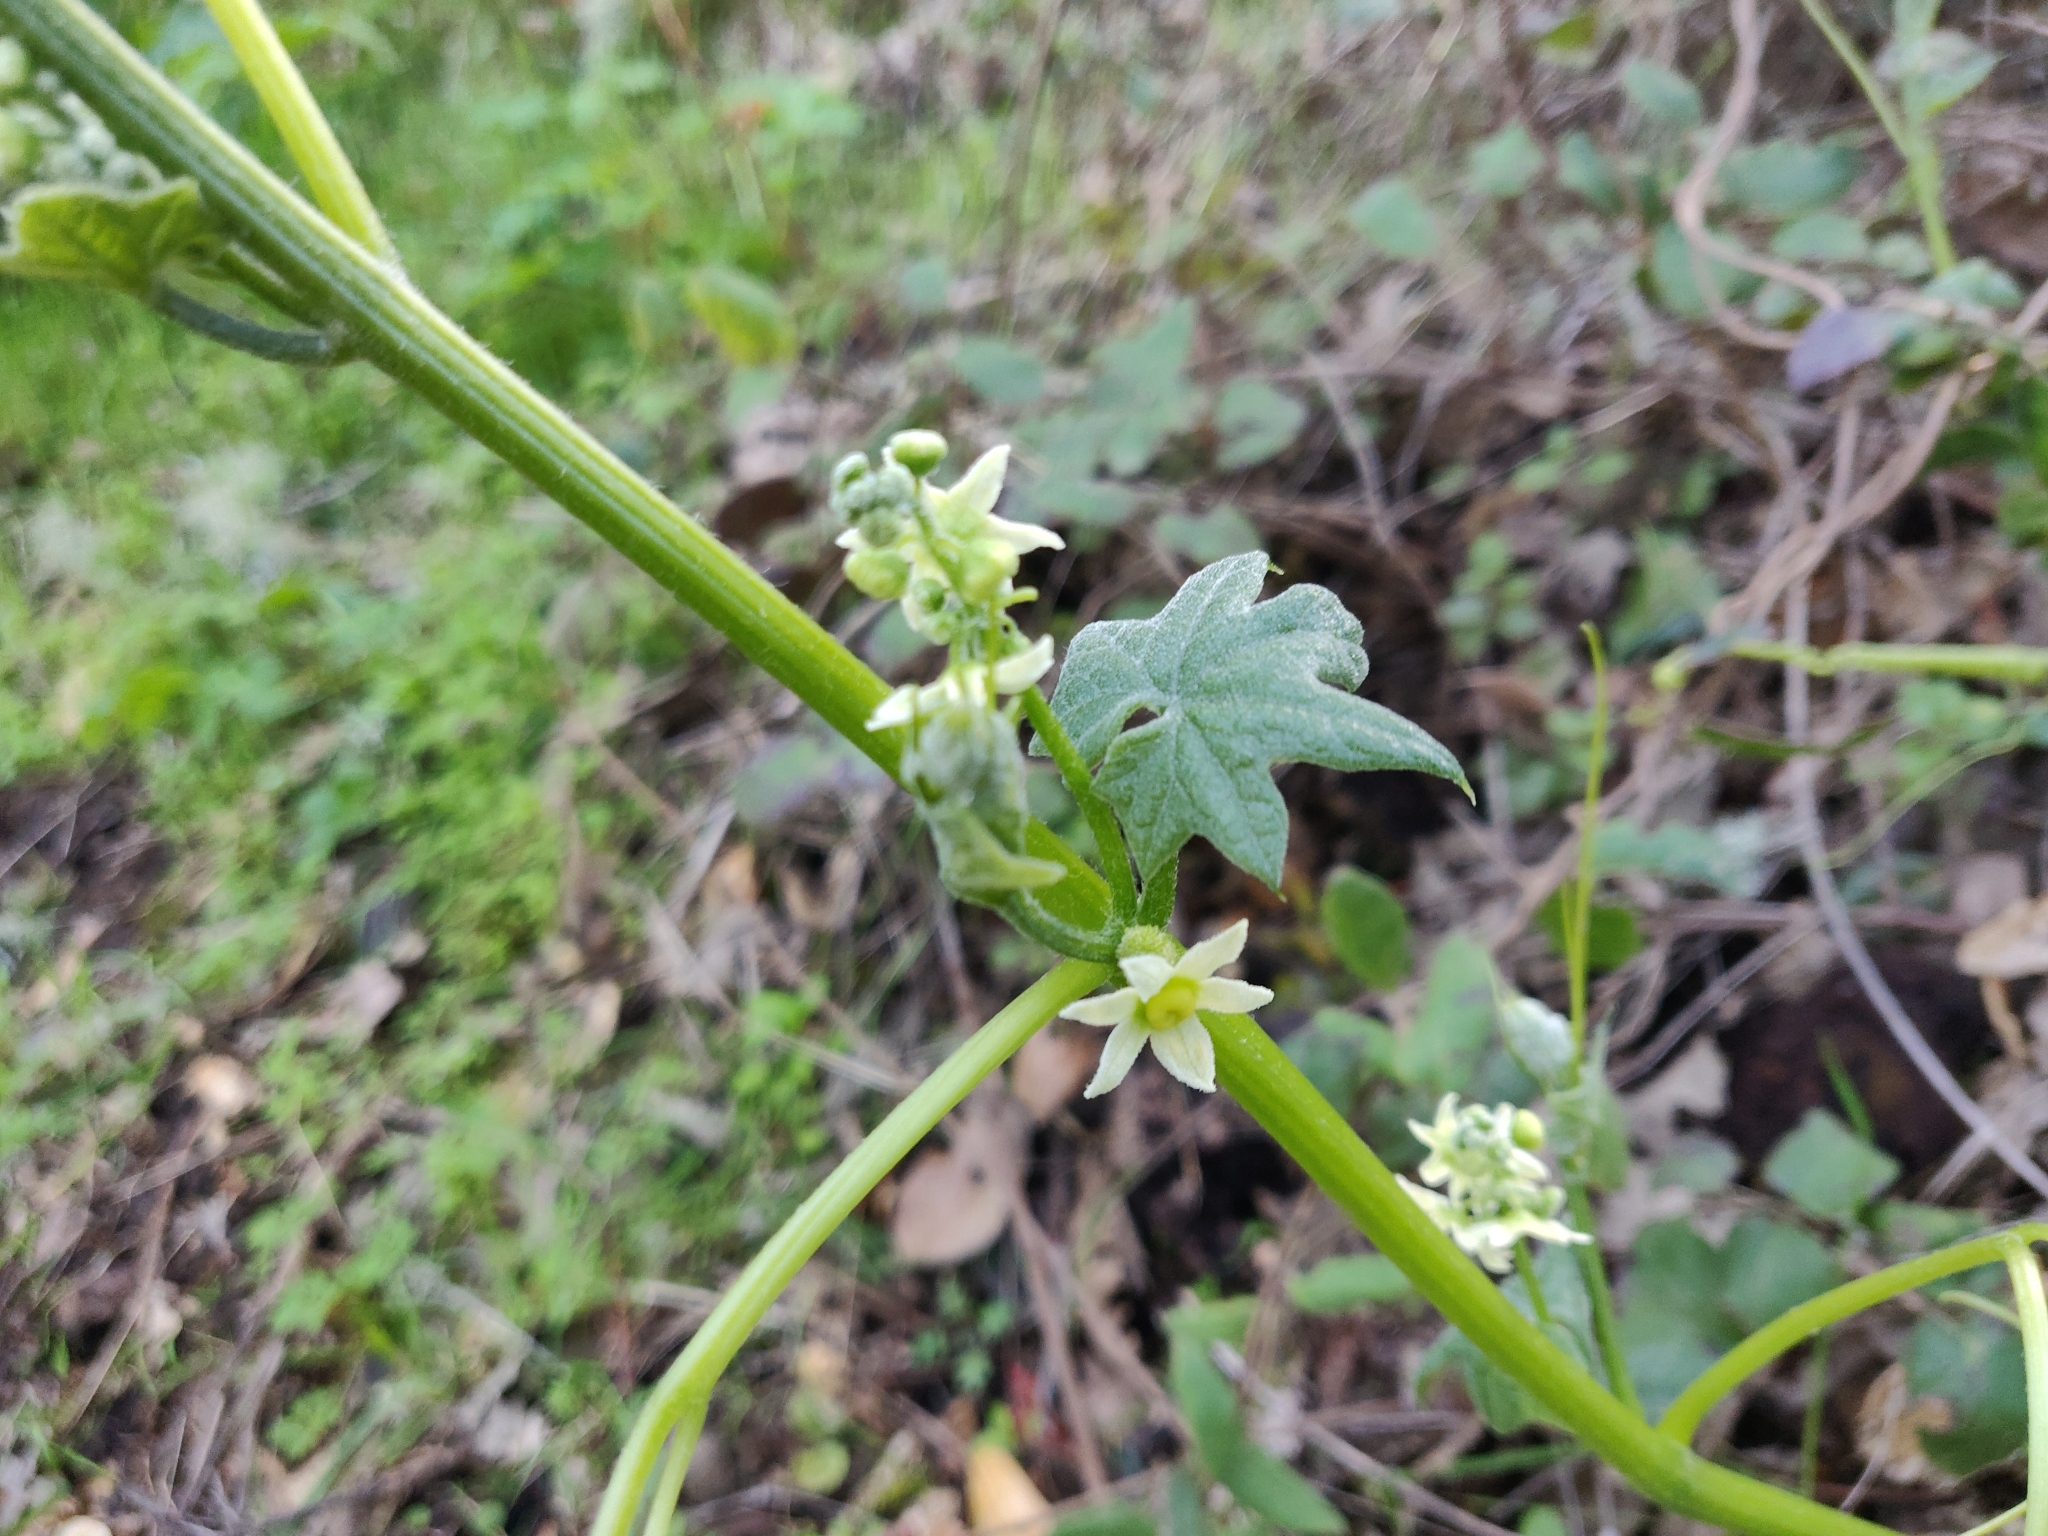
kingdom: Plantae
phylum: Tracheophyta
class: Magnoliopsida
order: Cucurbitales
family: Cucurbitaceae
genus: Marah
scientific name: Marah fabacea
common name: California manroot
